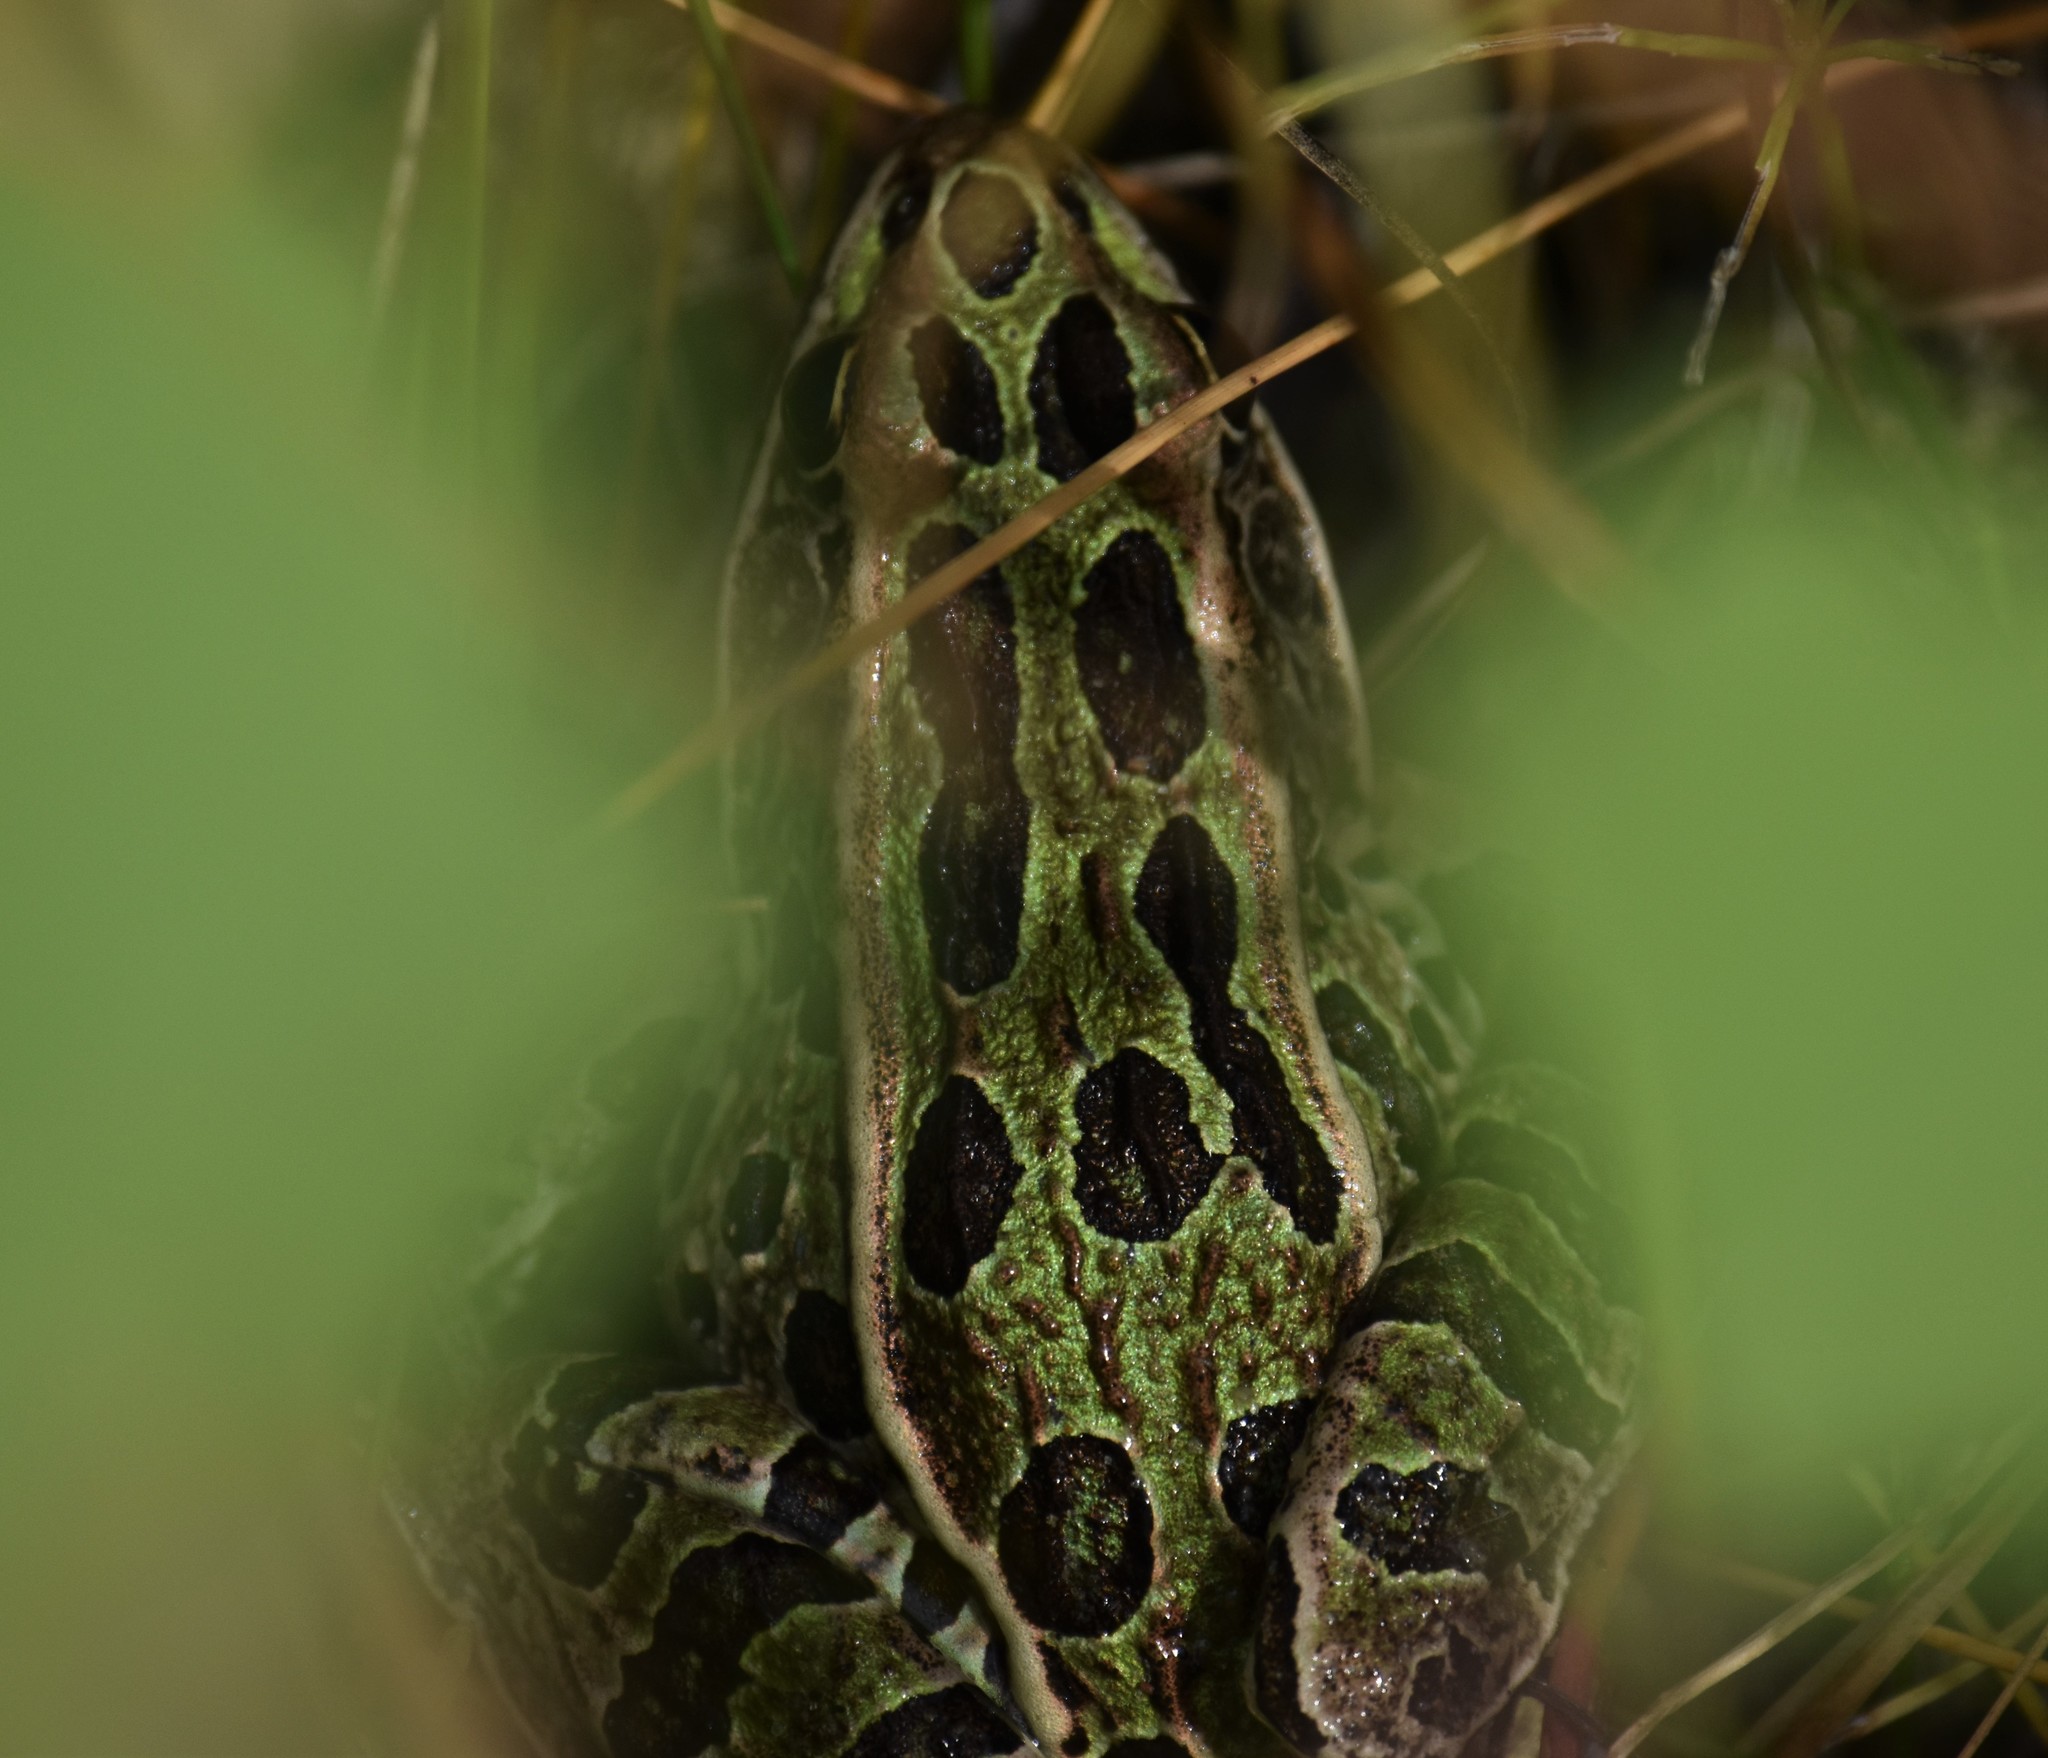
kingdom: Animalia
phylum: Chordata
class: Amphibia
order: Anura
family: Ranidae
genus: Lithobates
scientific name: Lithobates pipiens
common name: Northern leopard frog
